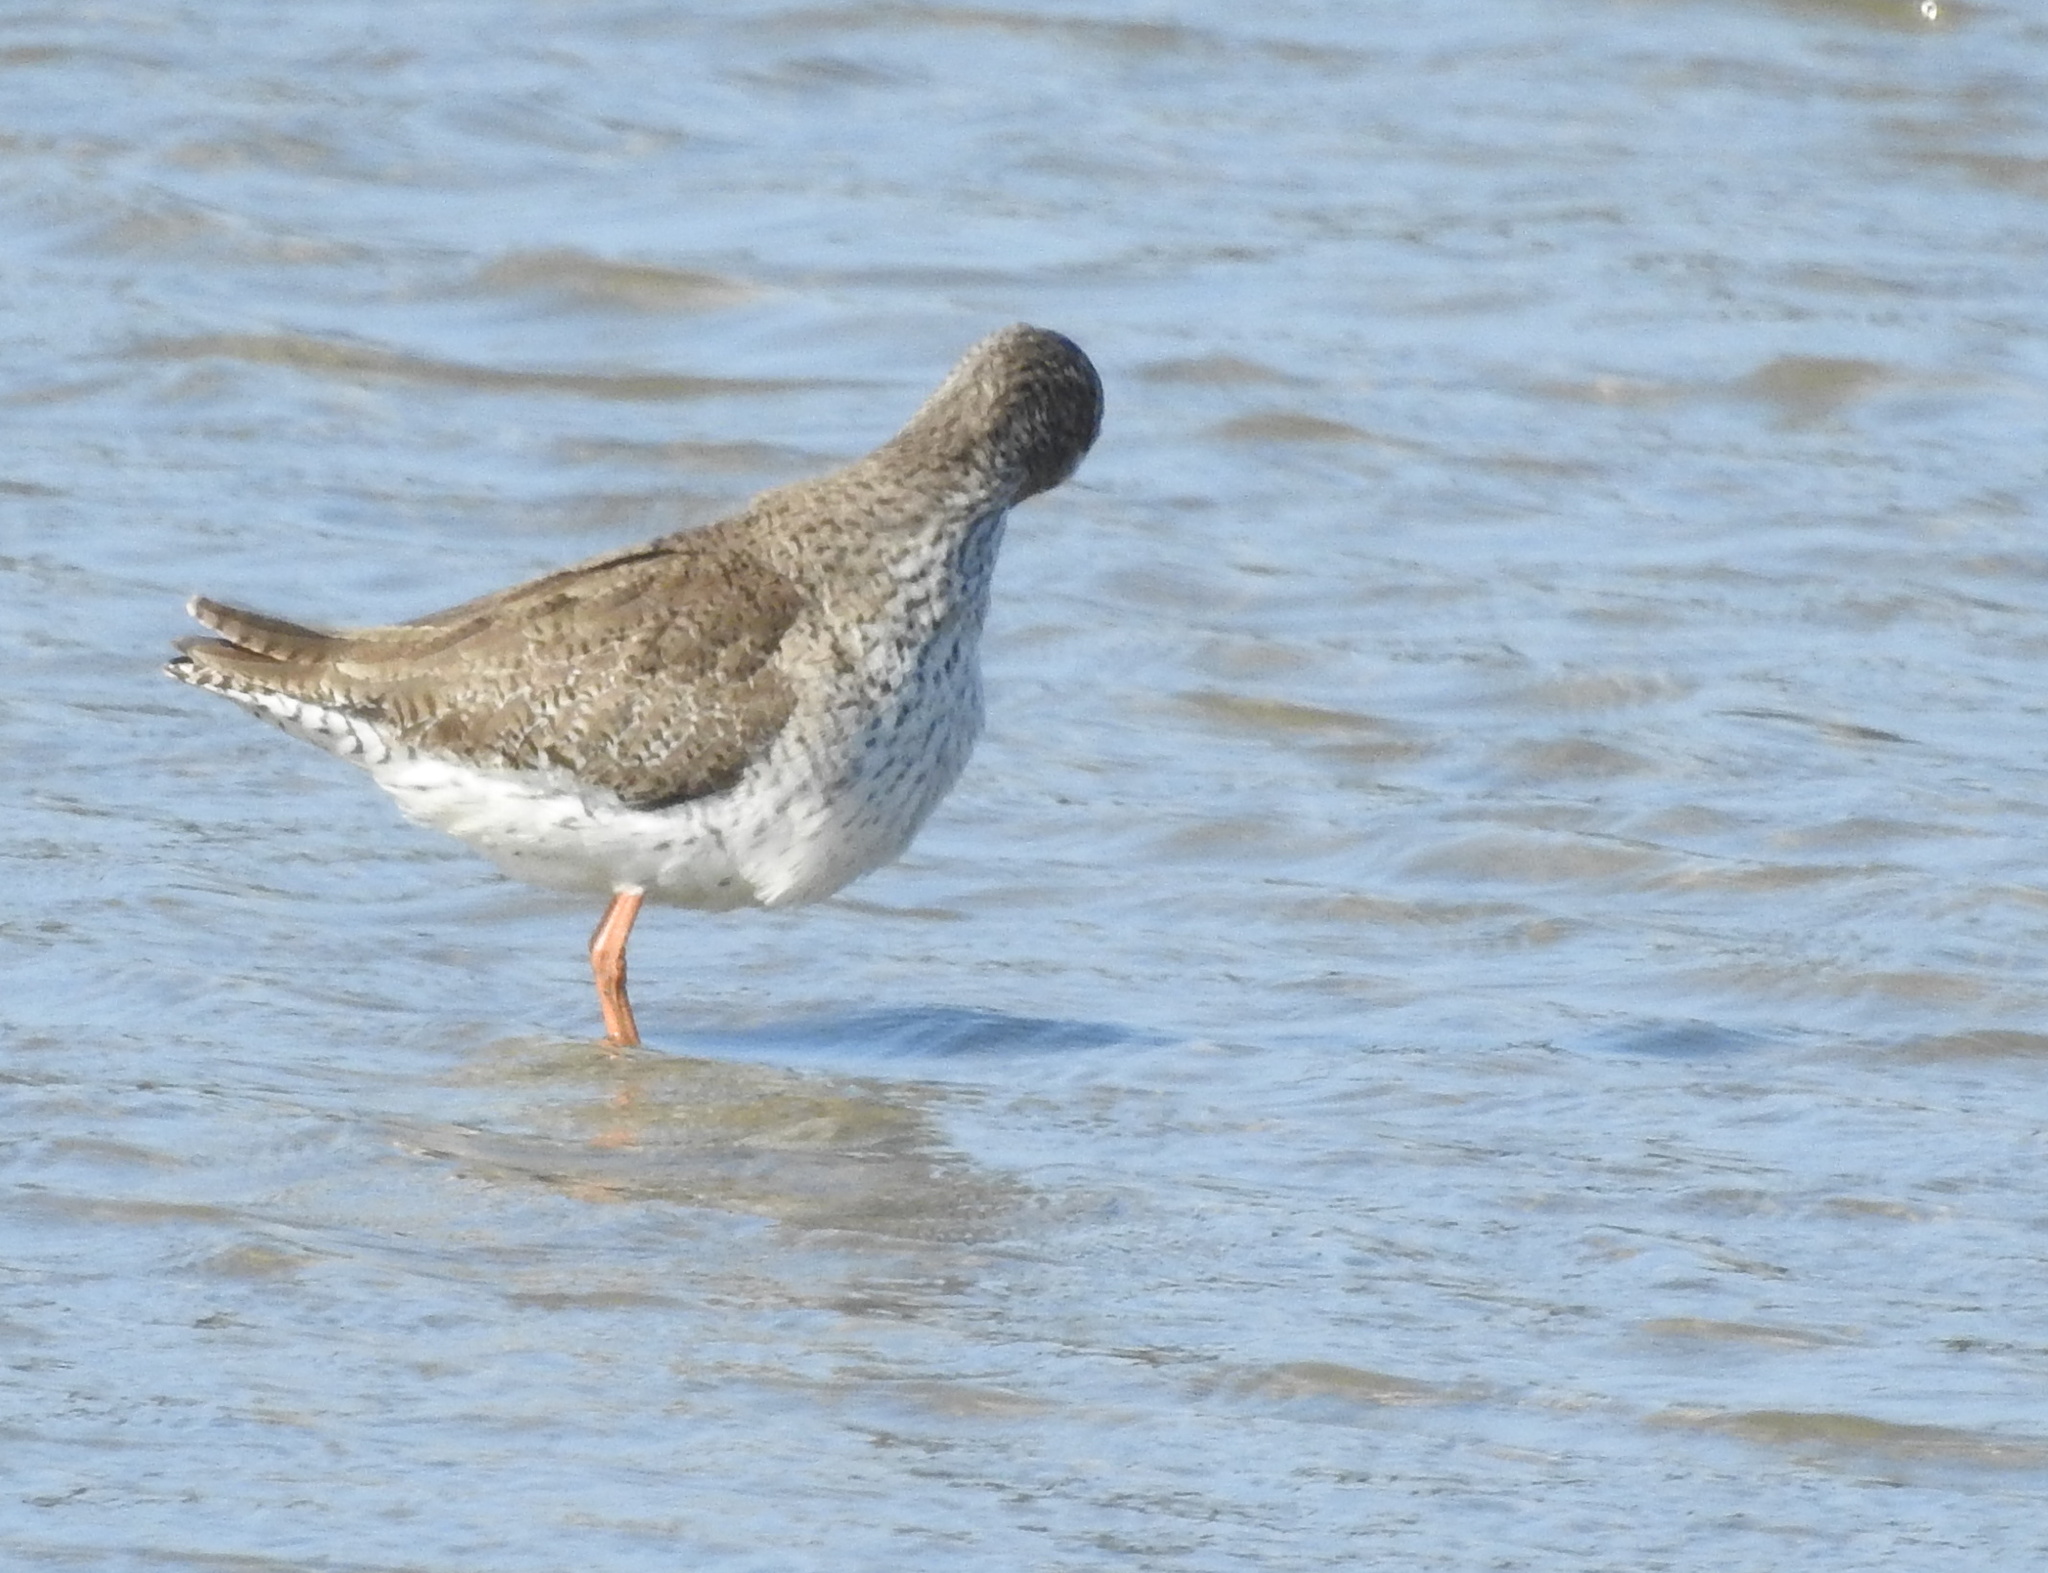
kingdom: Animalia
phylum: Chordata
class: Aves
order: Charadriiformes
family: Scolopacidae
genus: Tringa
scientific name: Tringa totanus
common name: Common redshank
